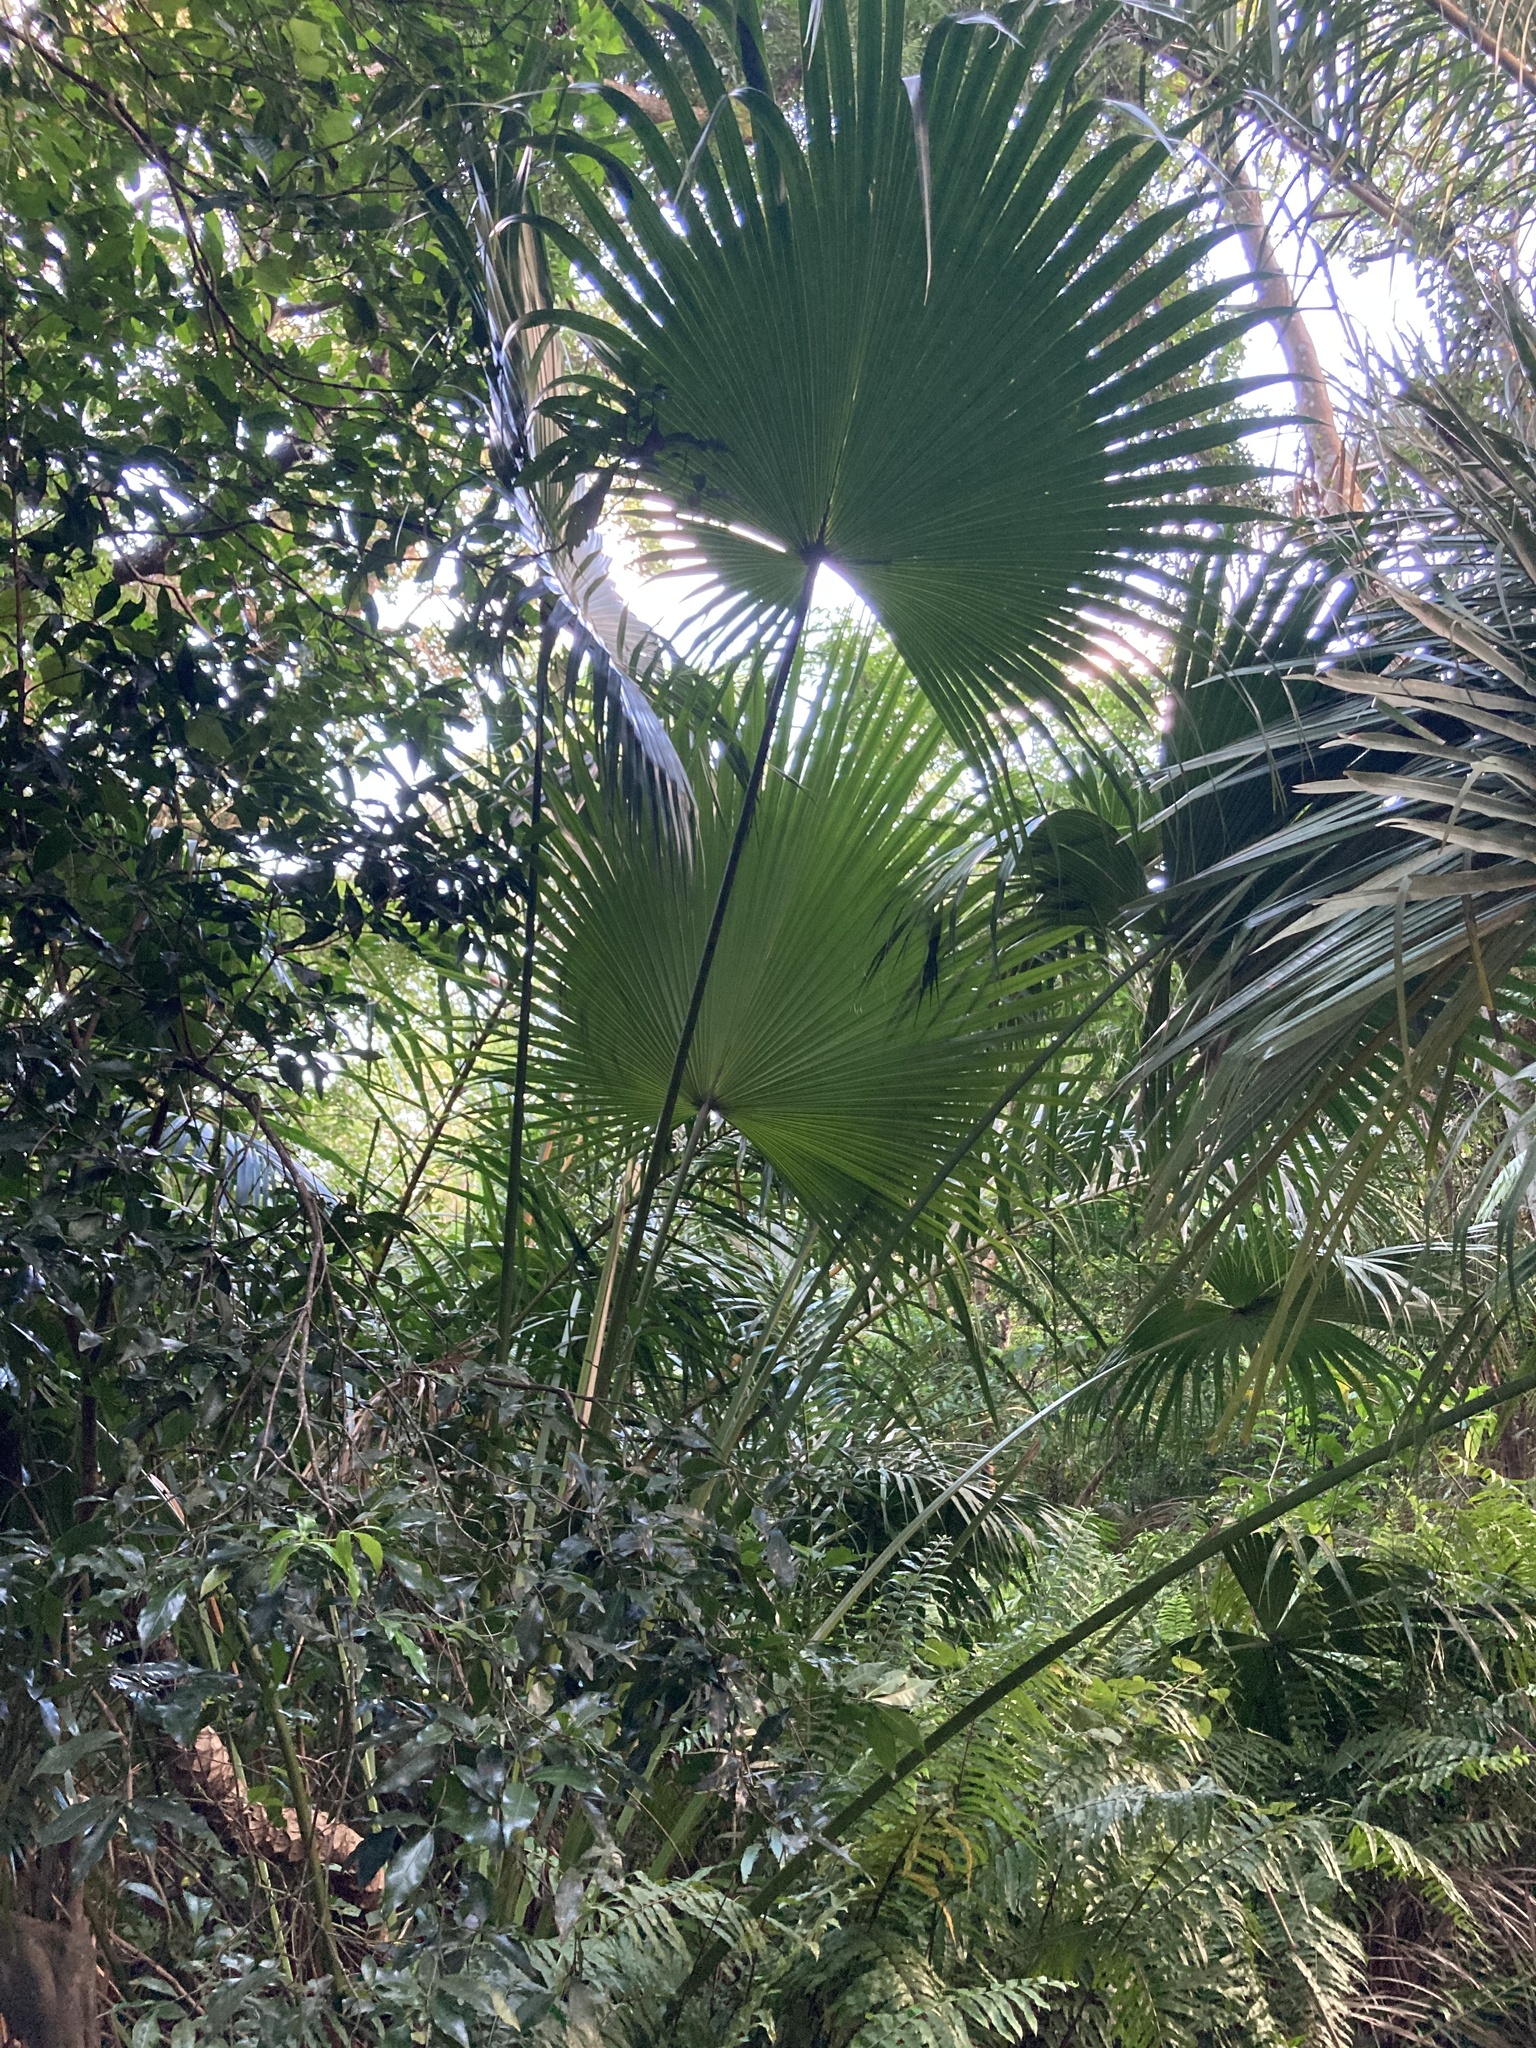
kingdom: Plantae
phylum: Tracheophyta
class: Liliopsida
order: Arecales
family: Arecaceae
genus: Livistona
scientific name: Livistona chinensis
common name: Fountain palm
